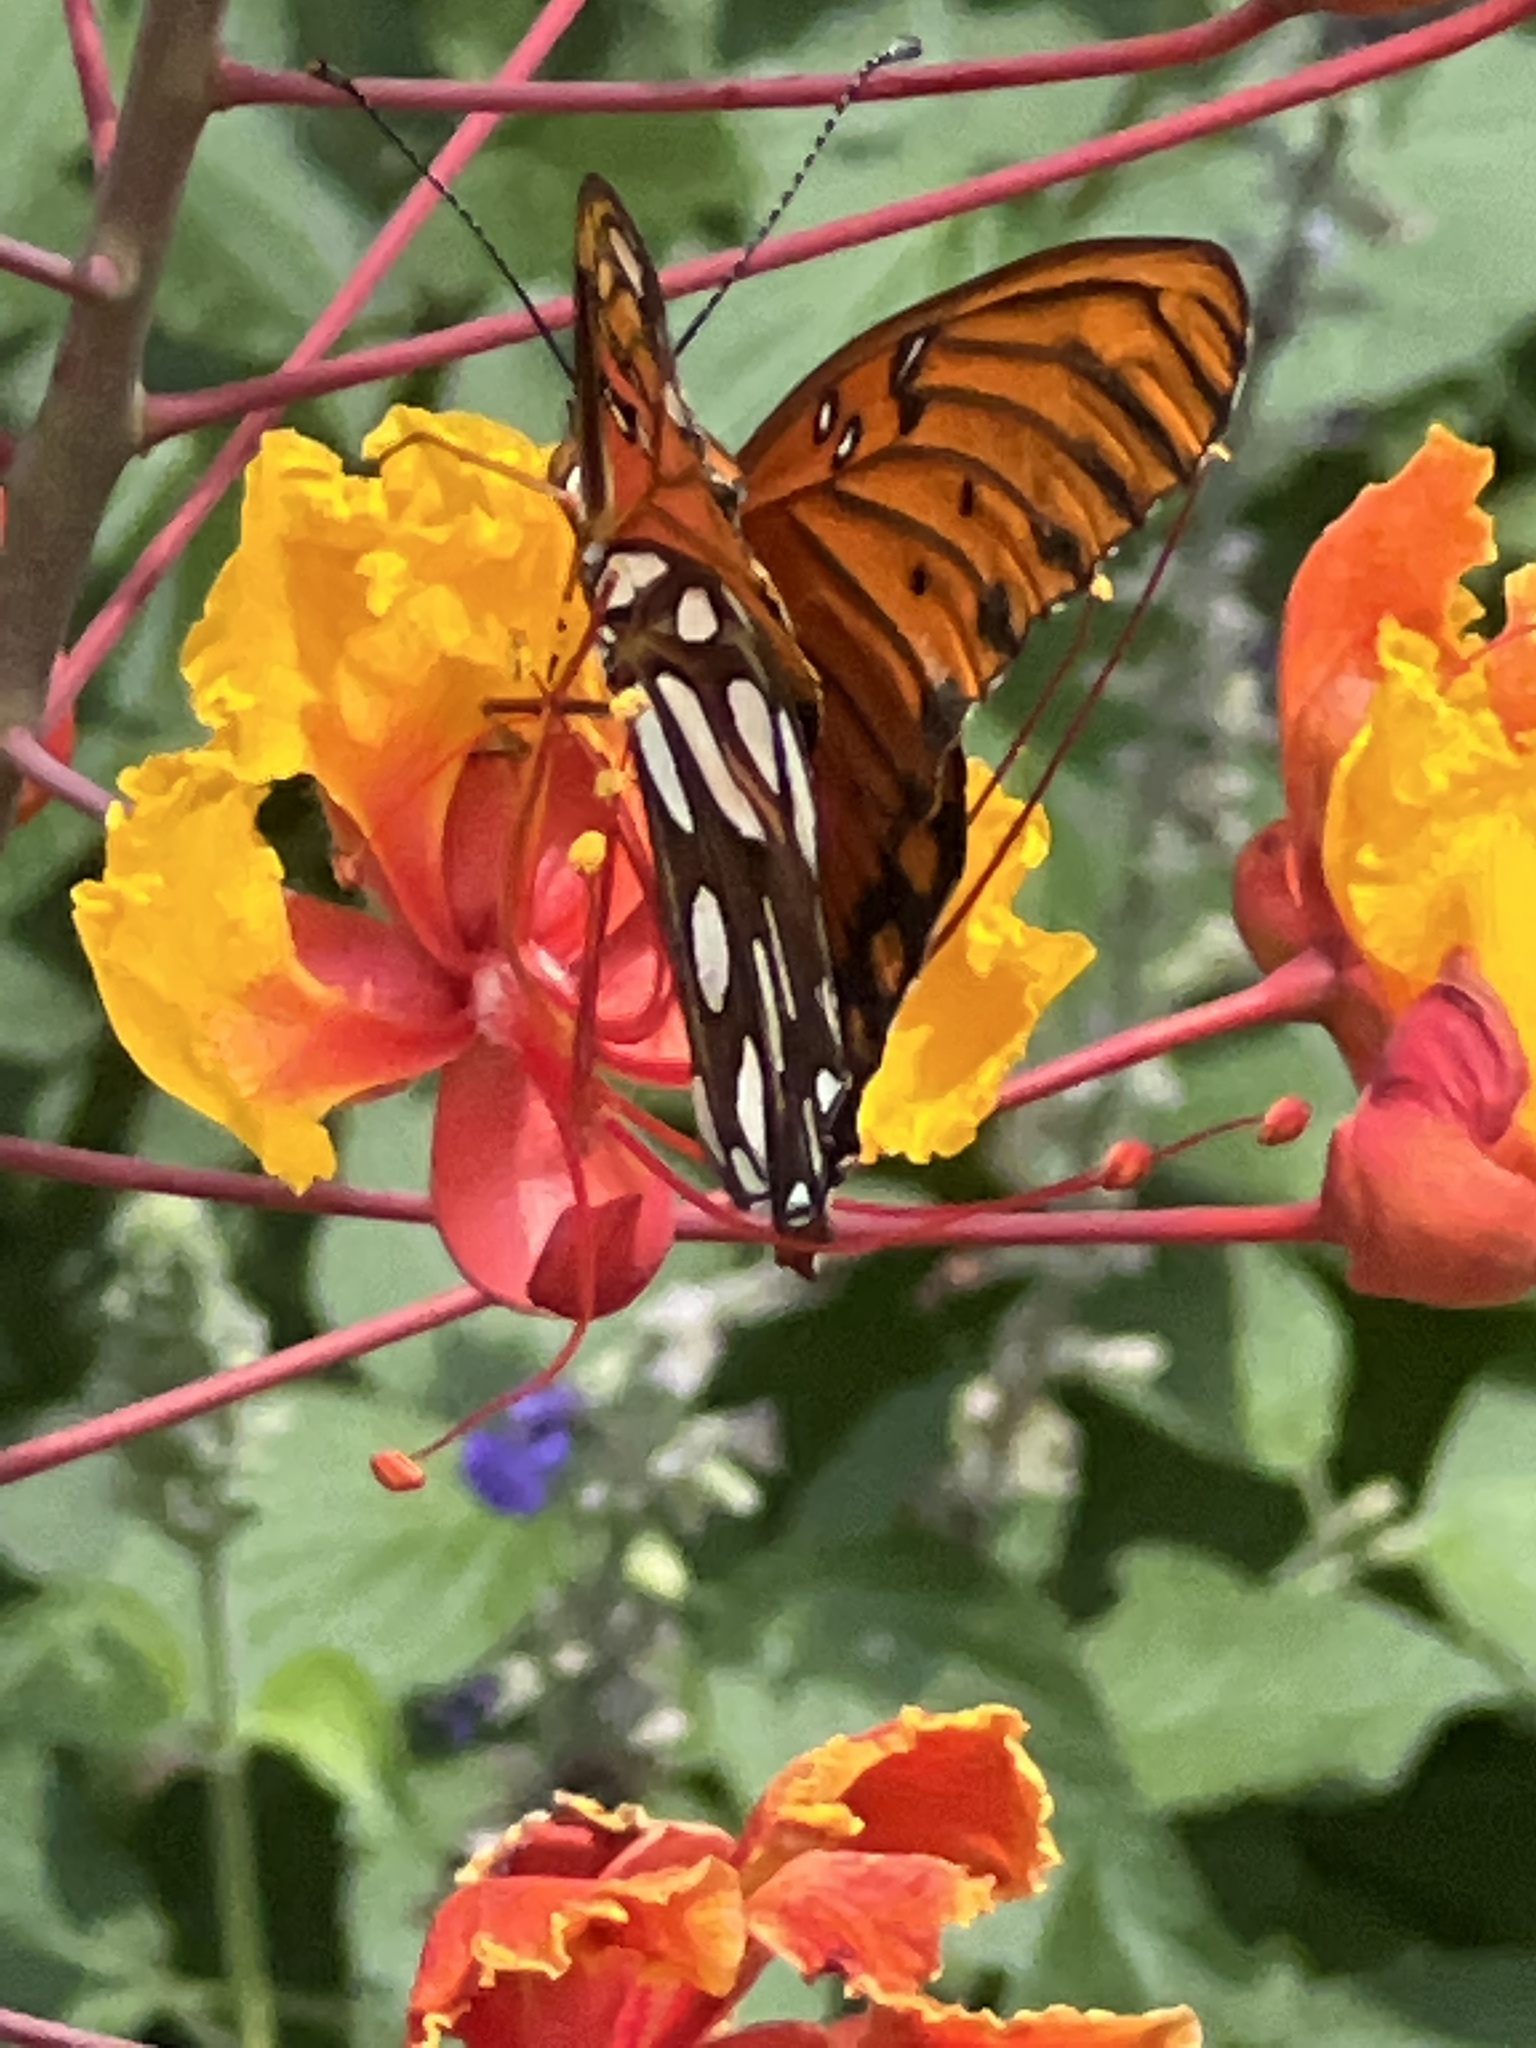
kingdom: Animalia
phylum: Arthropoda
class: Insecta
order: Lepidoptera
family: Nymphalidae
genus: Dione
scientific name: Dione vanillae
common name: Gulf fritillary
